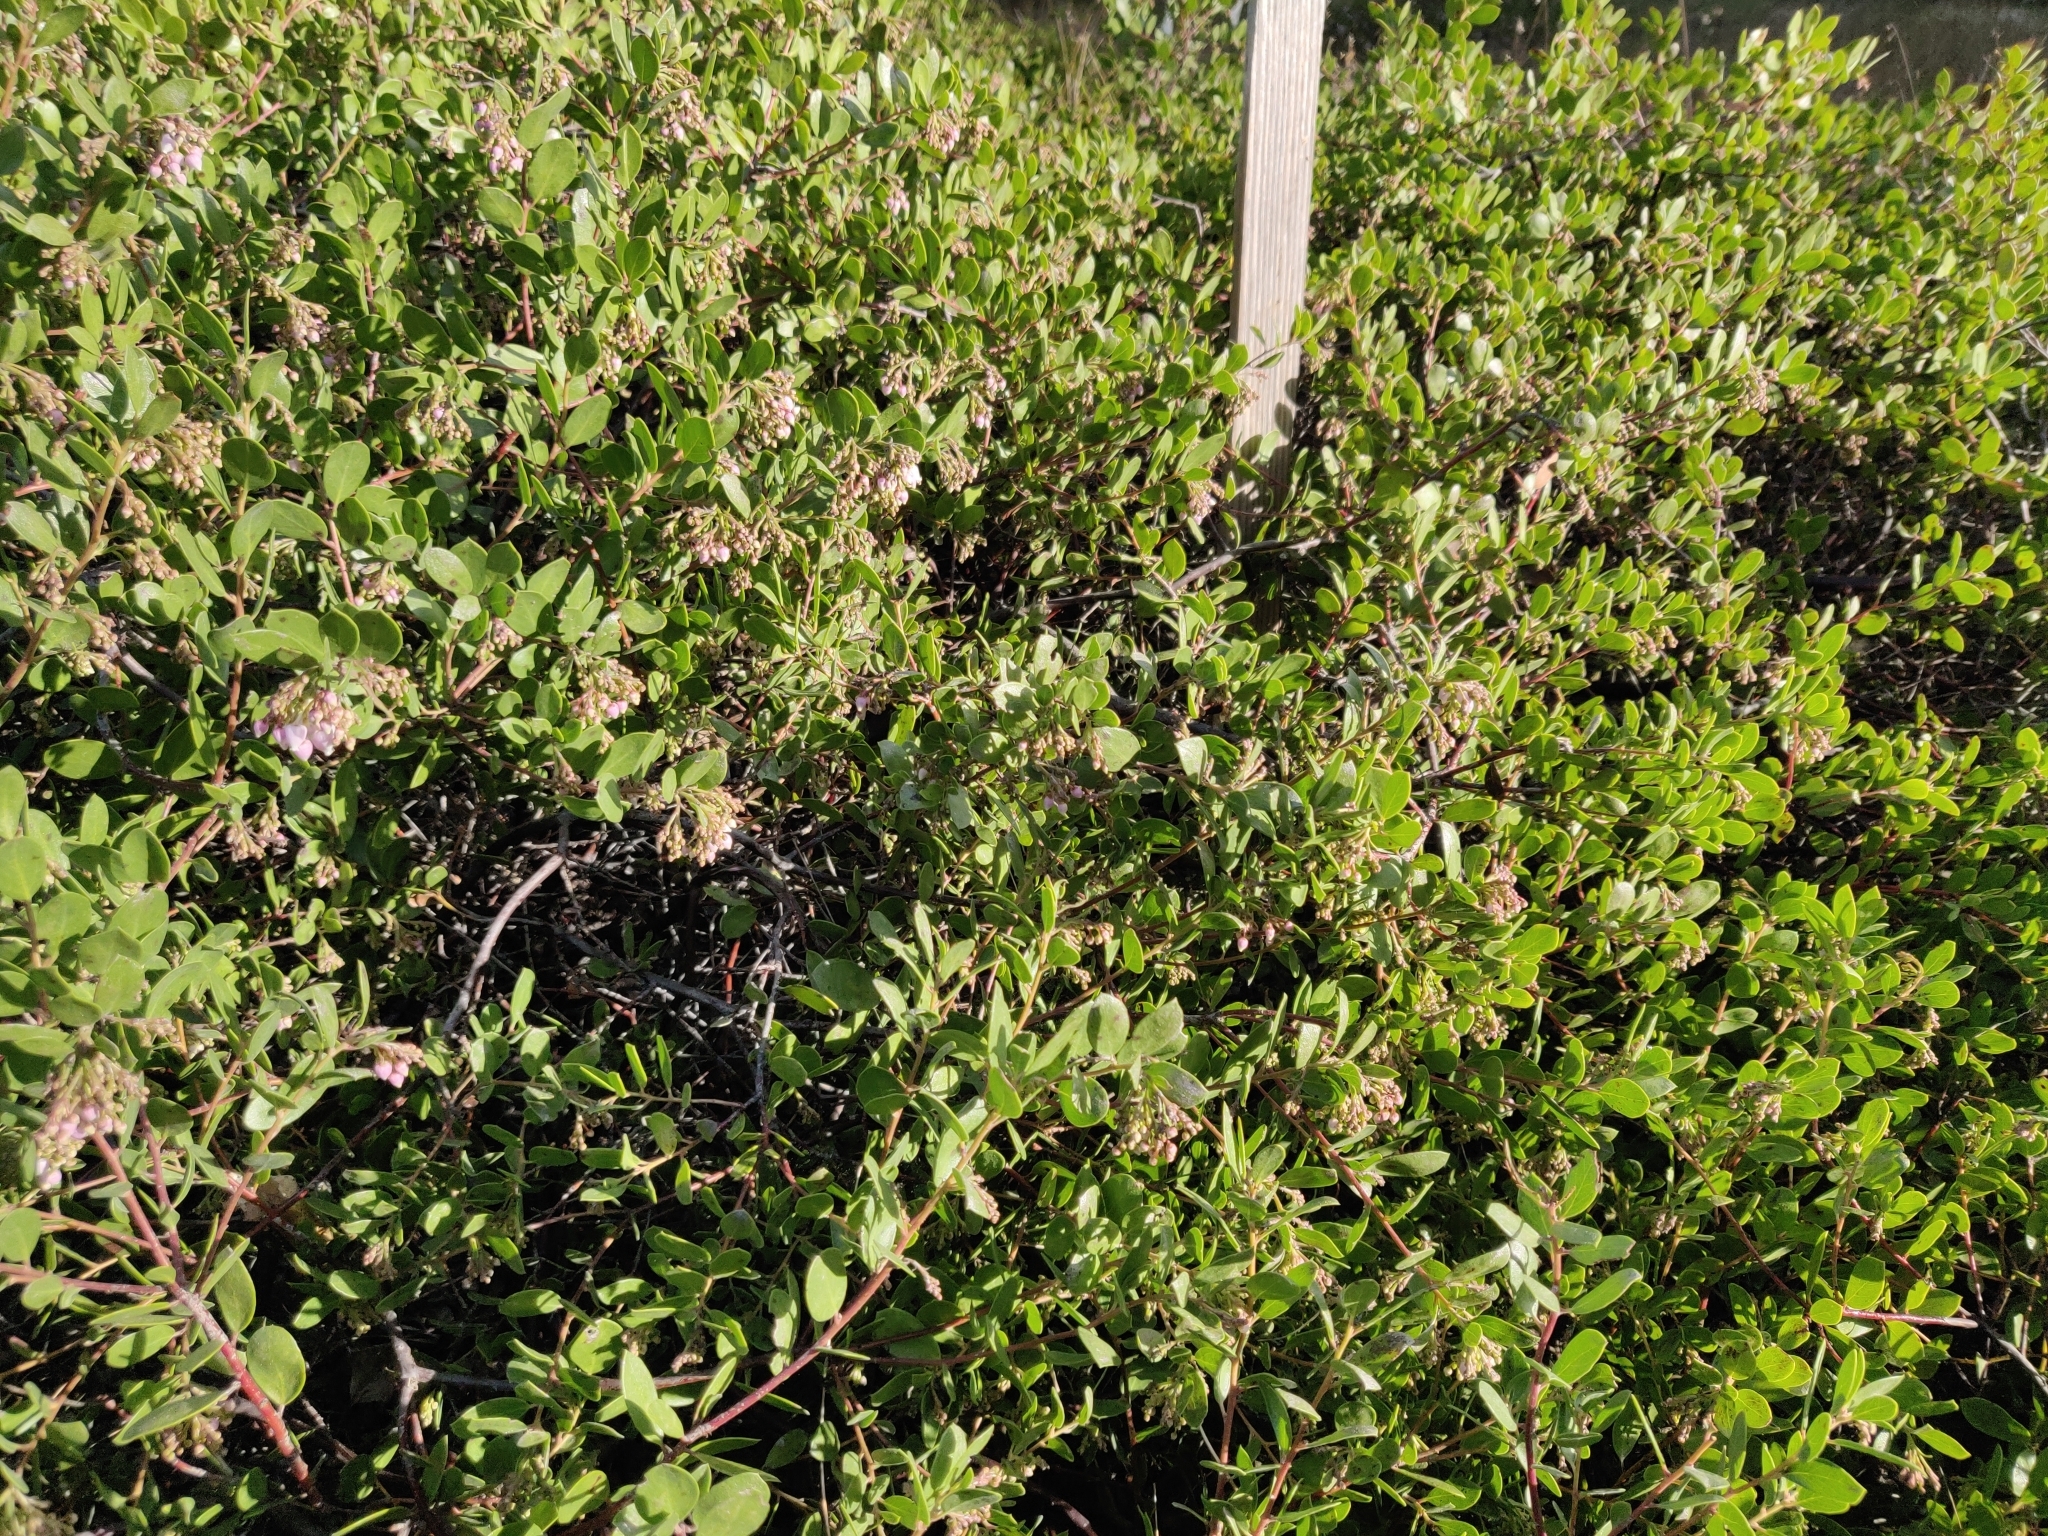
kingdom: Plantae
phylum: Tracheophyta
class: Magnoliopsida
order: Ericales
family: Ericaceae
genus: Arctostaphylos
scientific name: Arctostaphylos densiflora
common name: Vine hill manzanita
